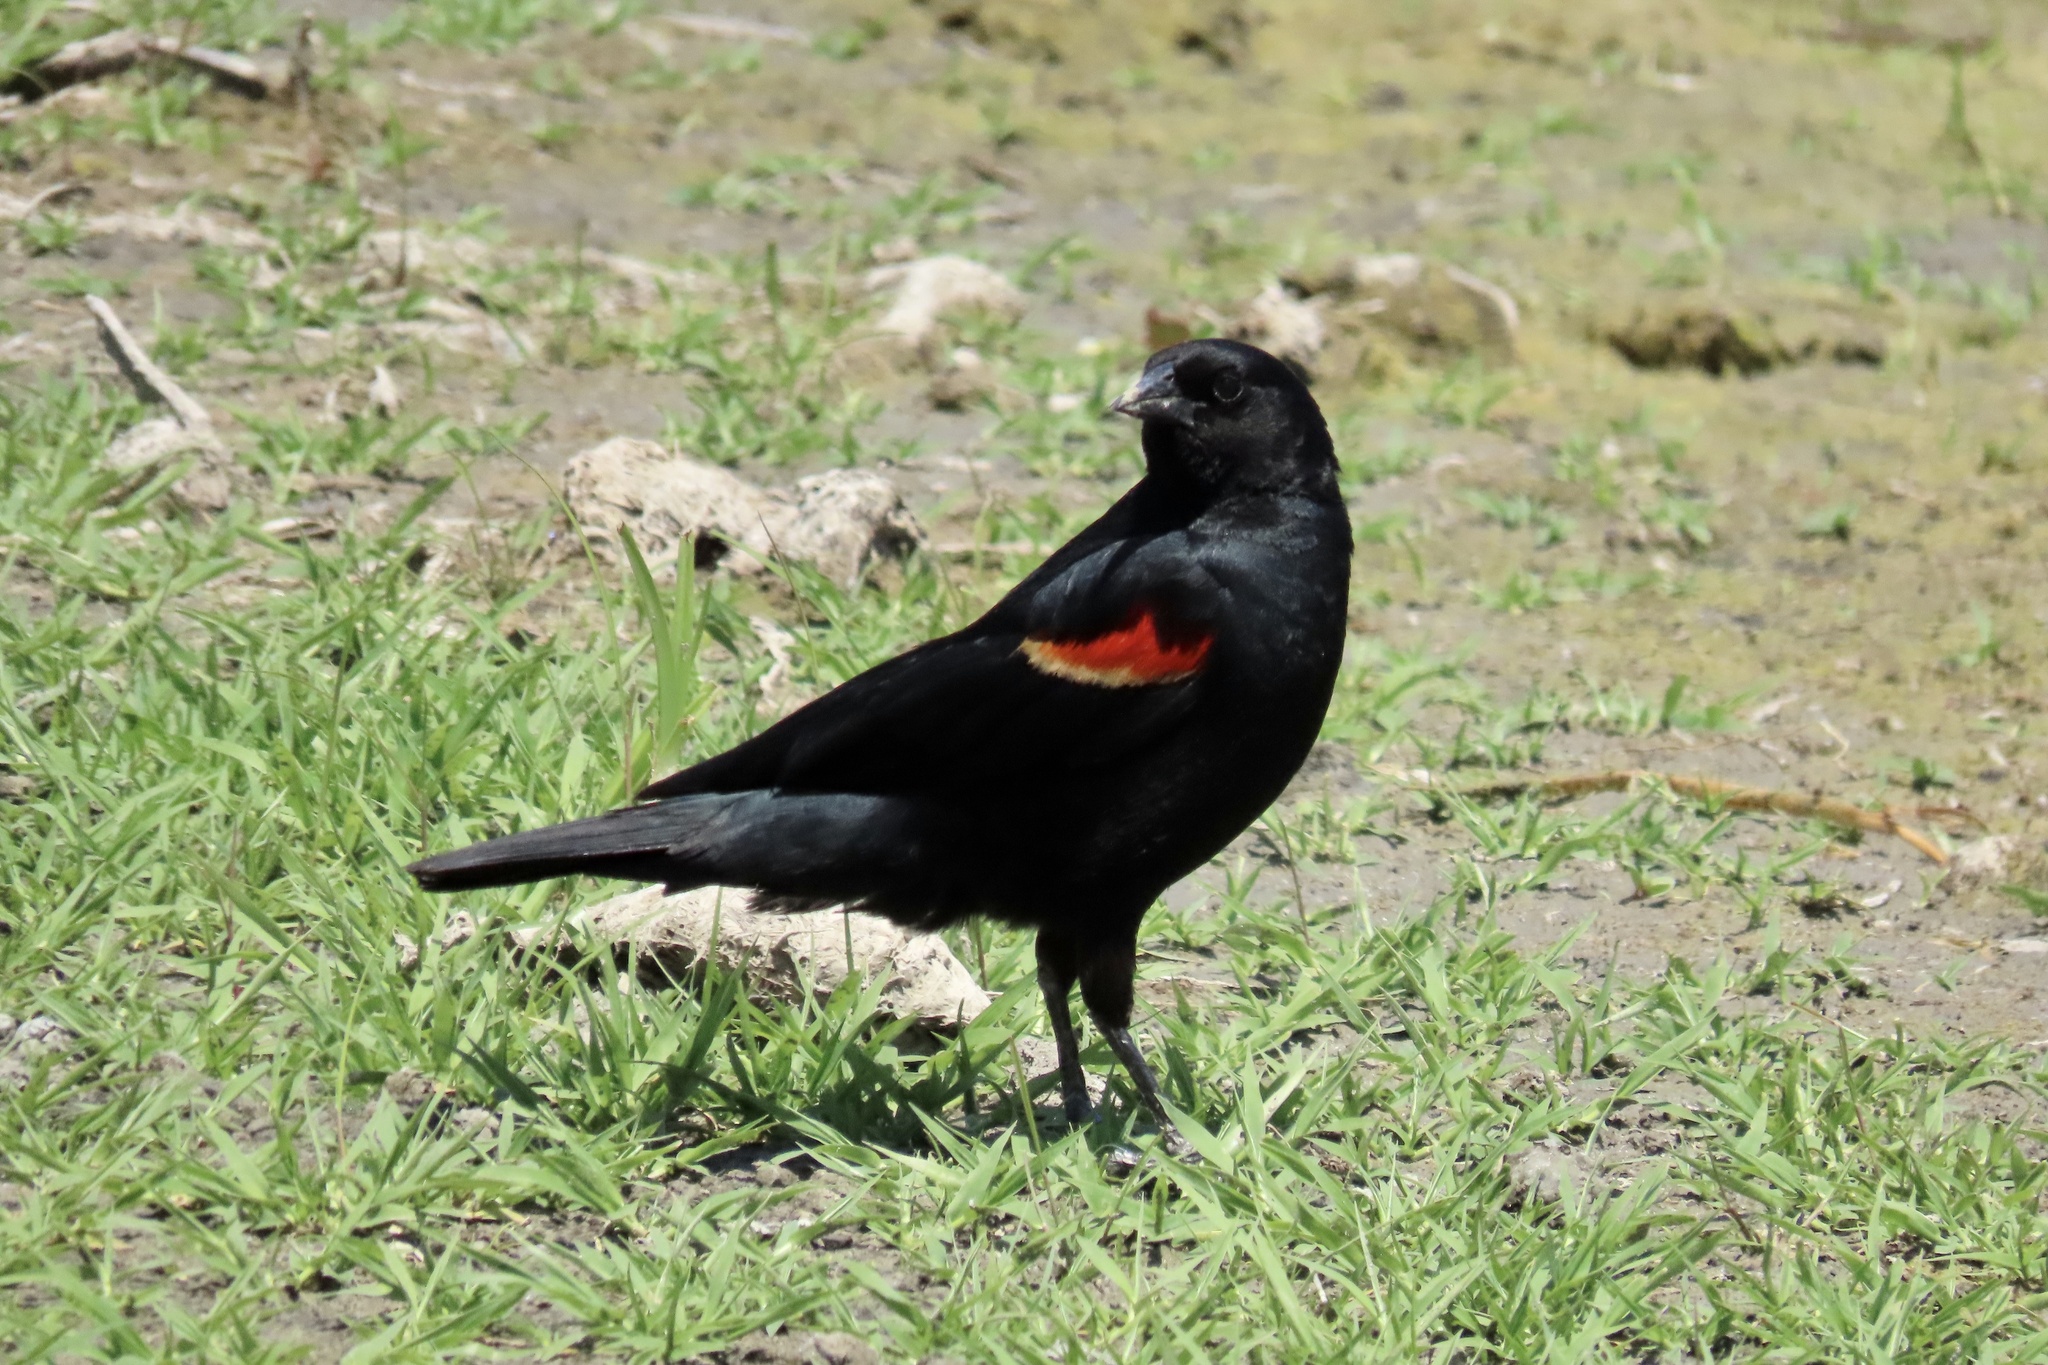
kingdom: Animalia
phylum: Chordata
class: Aves
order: Passeriformes
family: Icteridae
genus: Agelaius
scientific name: Agelaius phoeniceus
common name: Red-winged blackbird
